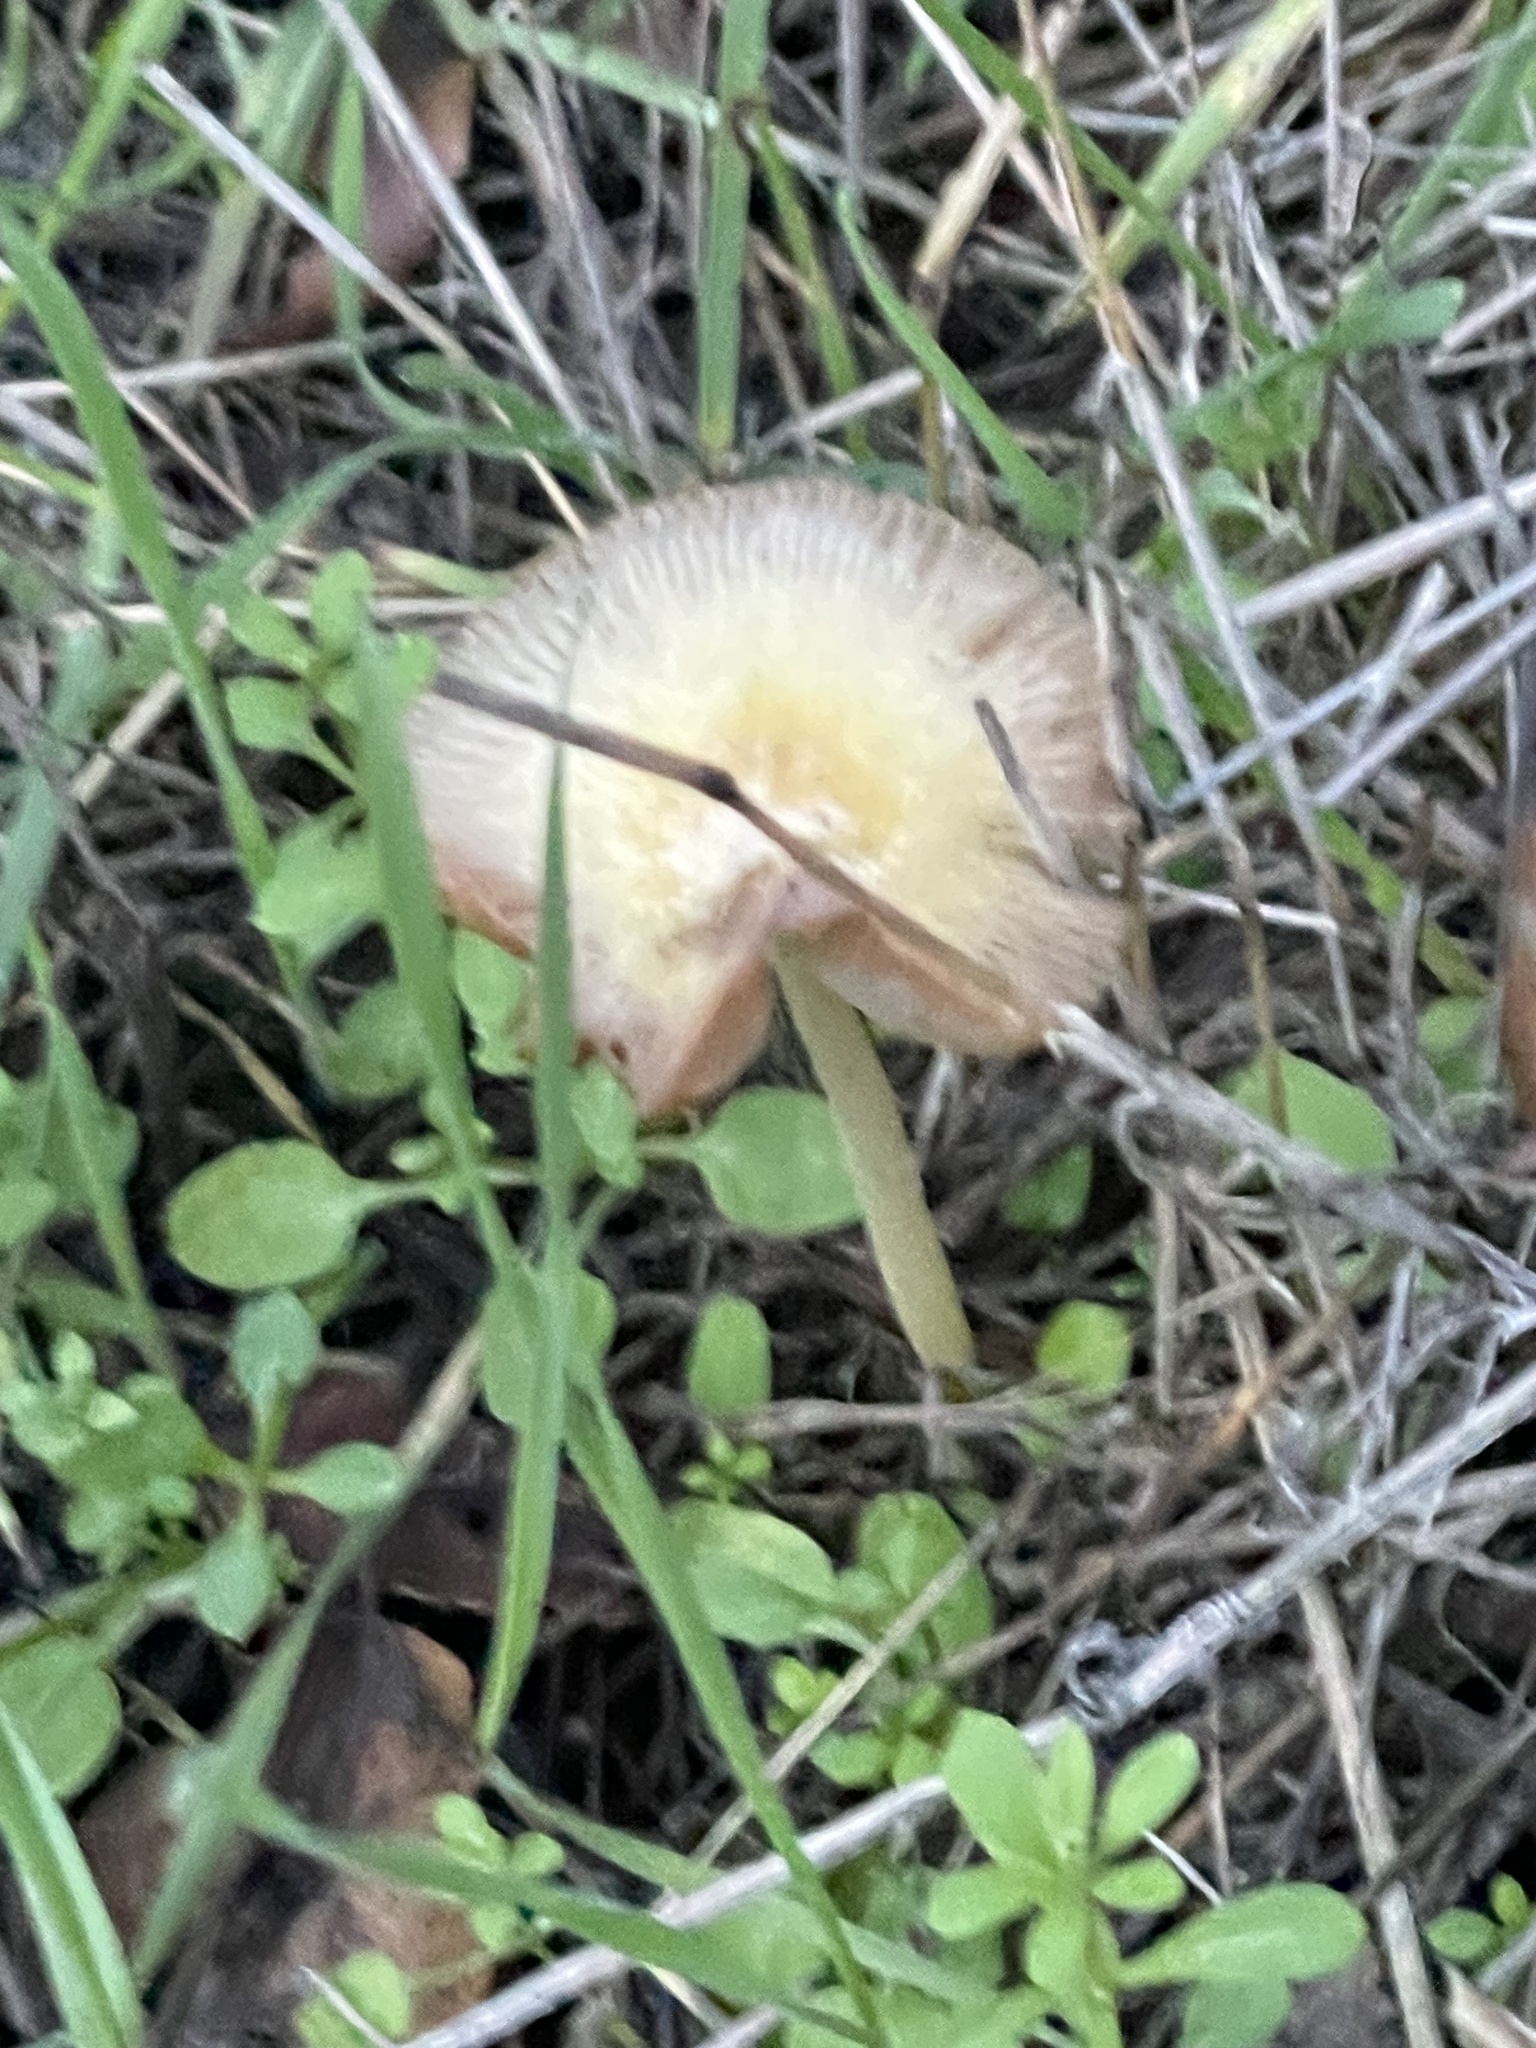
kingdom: Fungi
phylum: Basidiomycota
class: Agaricomycetes
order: Agaricales
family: Bolbitiaceae
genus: Bolbitius
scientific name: Bolbitius titubans
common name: Yellow fieldcap
